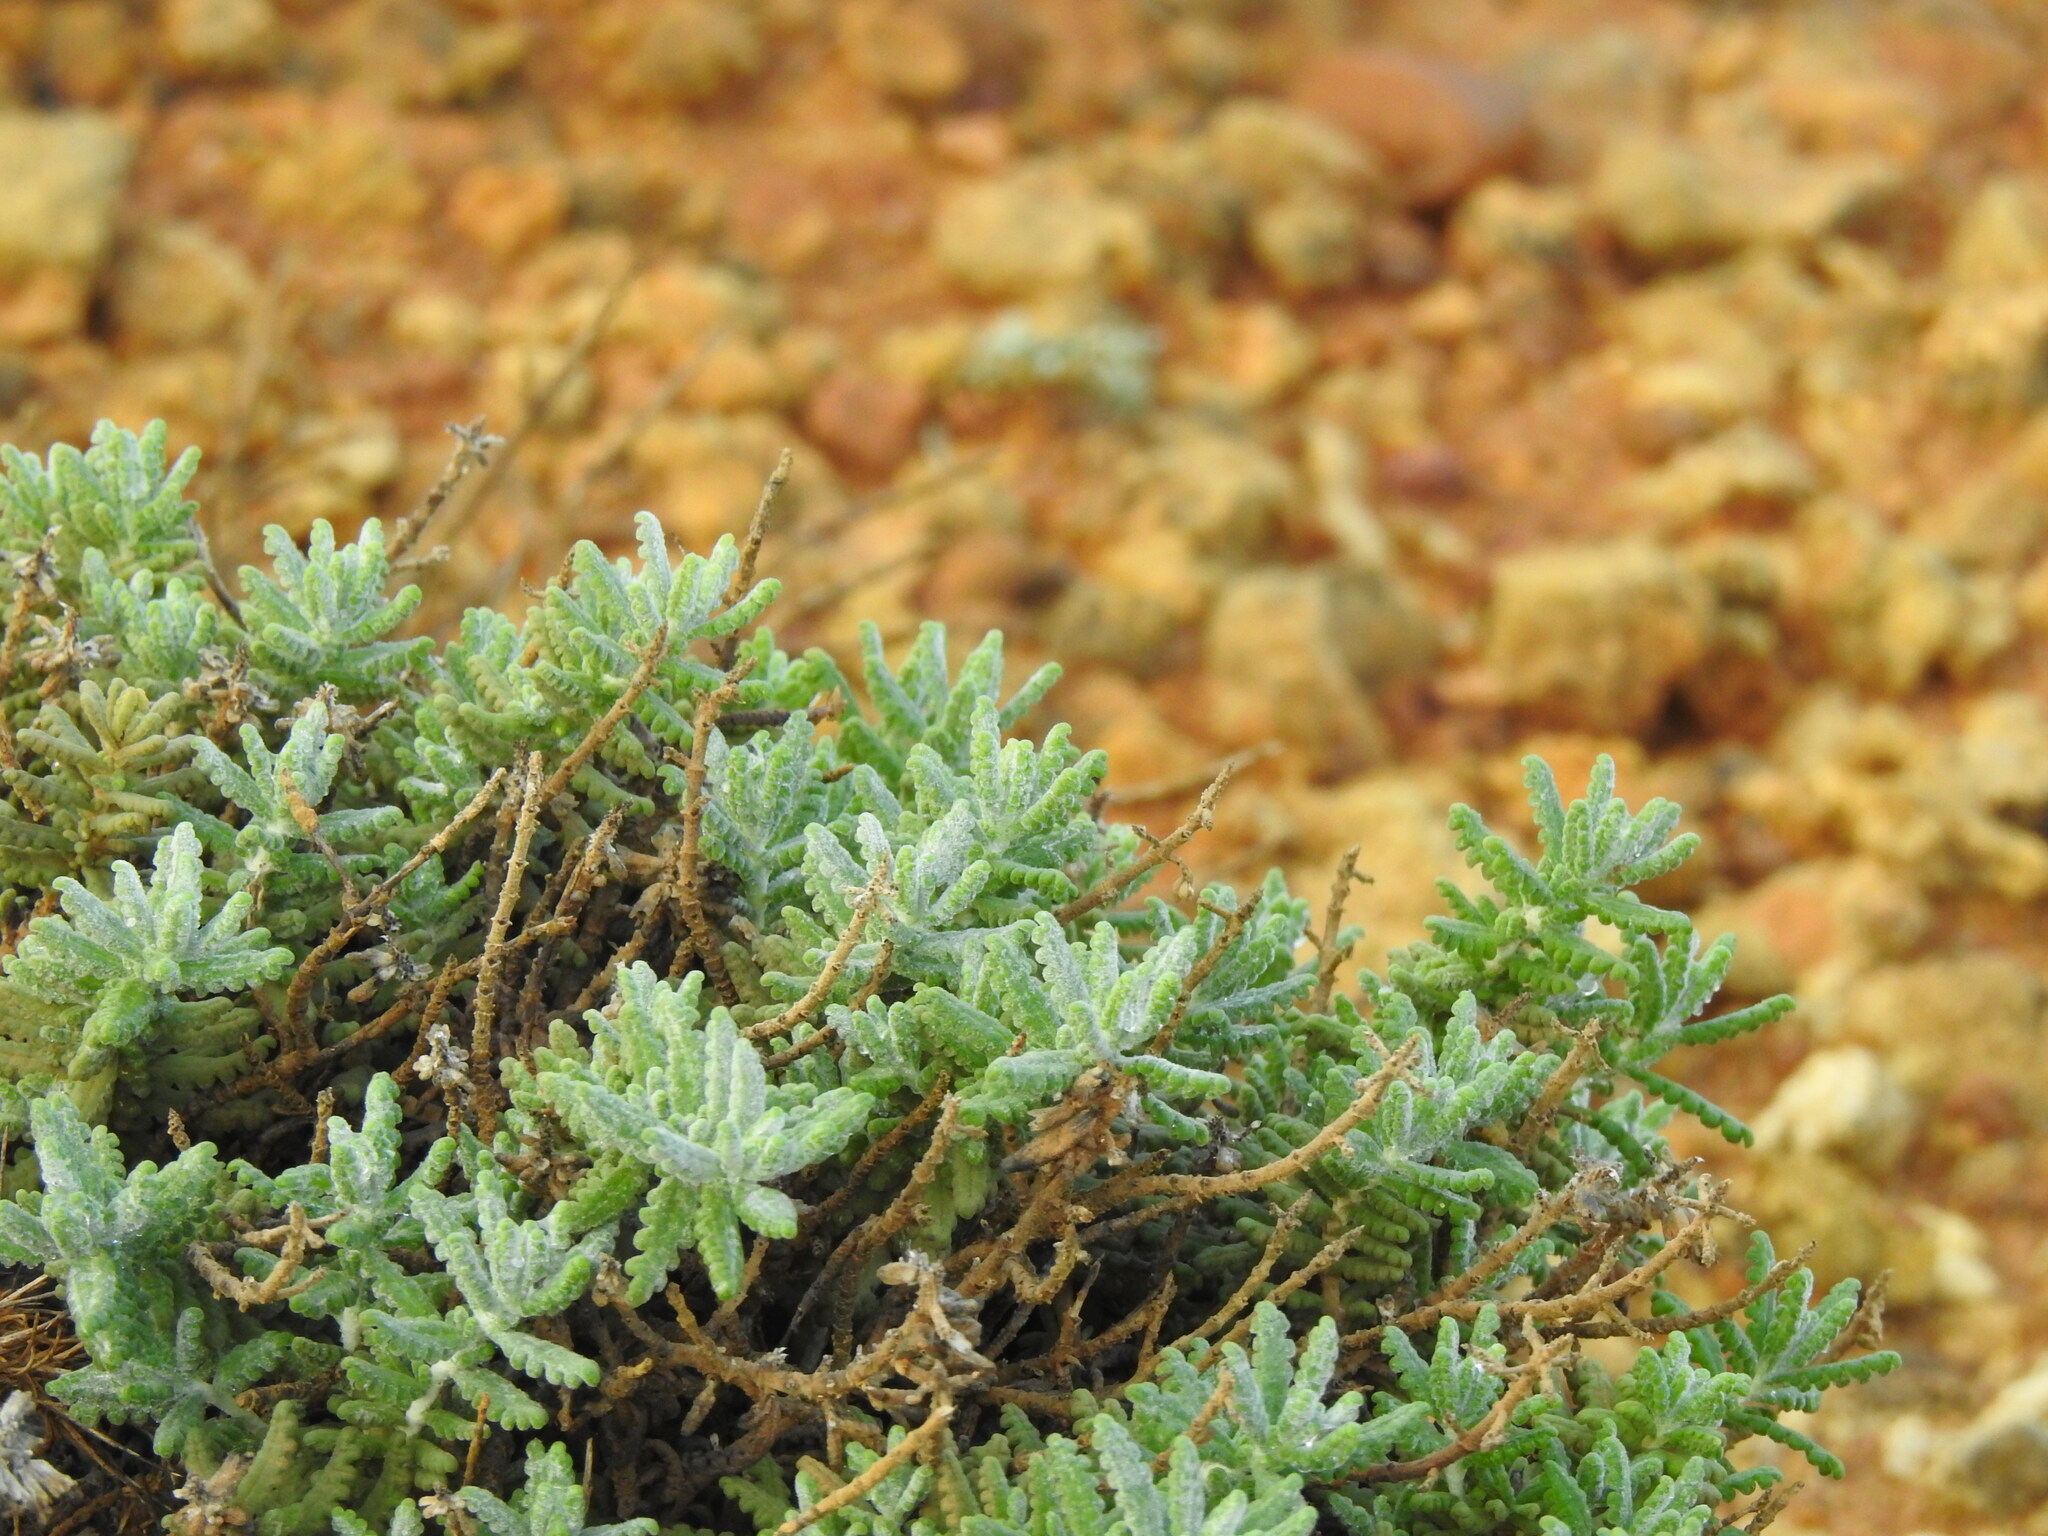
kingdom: Plantae
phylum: Tracheophyta
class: Magnoliopsida
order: Lamiales
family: Lamiaceae
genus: Teucrium
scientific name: Teucrium vincentinum
